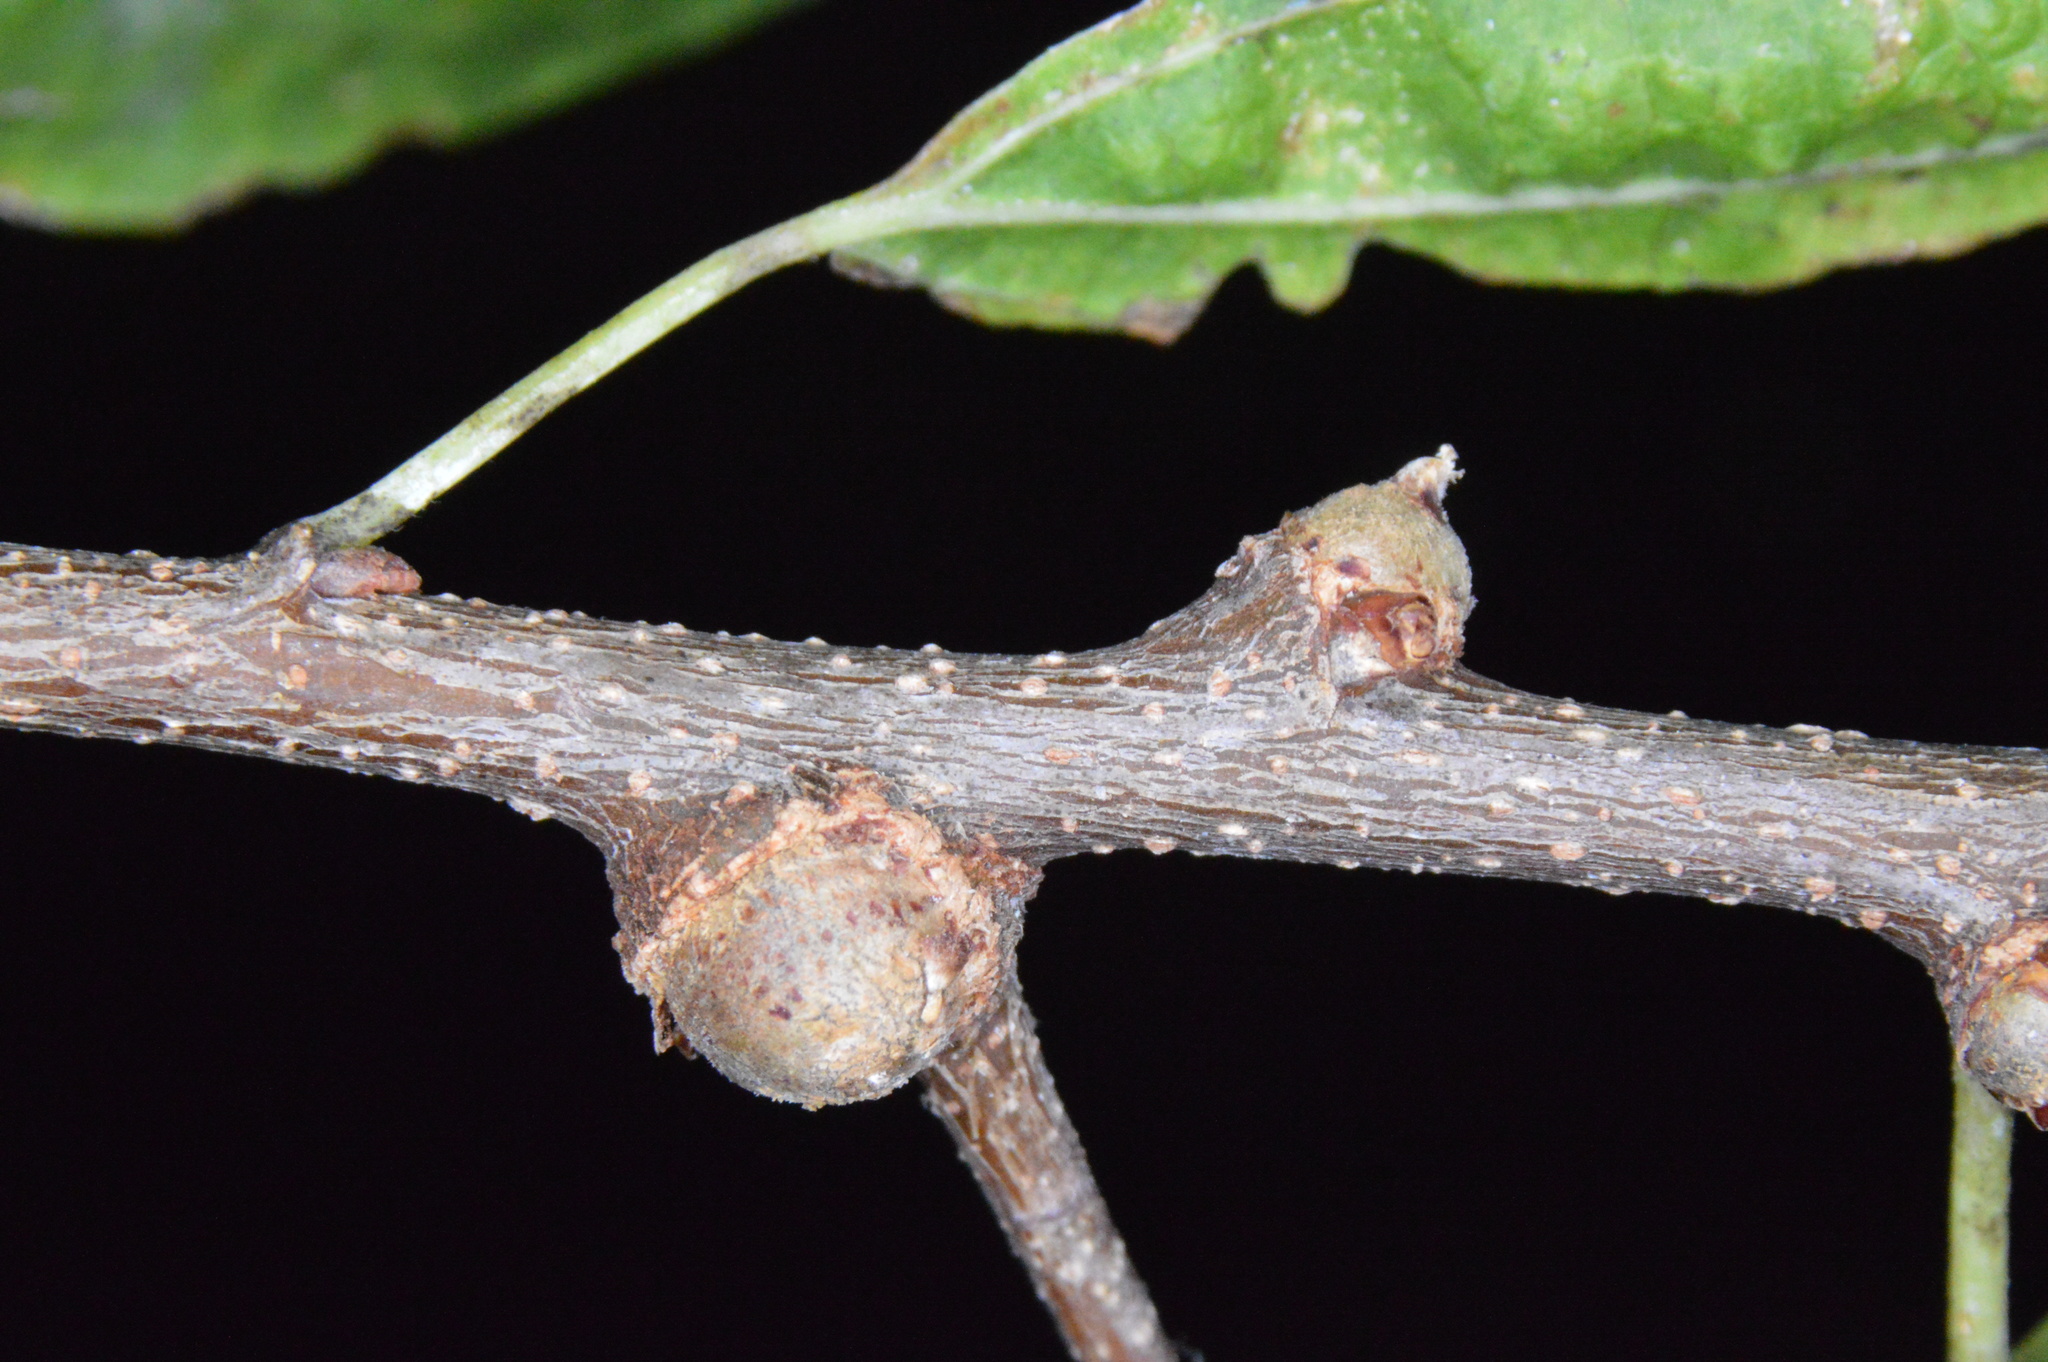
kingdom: Animalia
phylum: Arthropoda
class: Insecta
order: Hemiptera
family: Aphalaridae
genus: Pachypsylla
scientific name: Pachypsylla celtidisgemma
